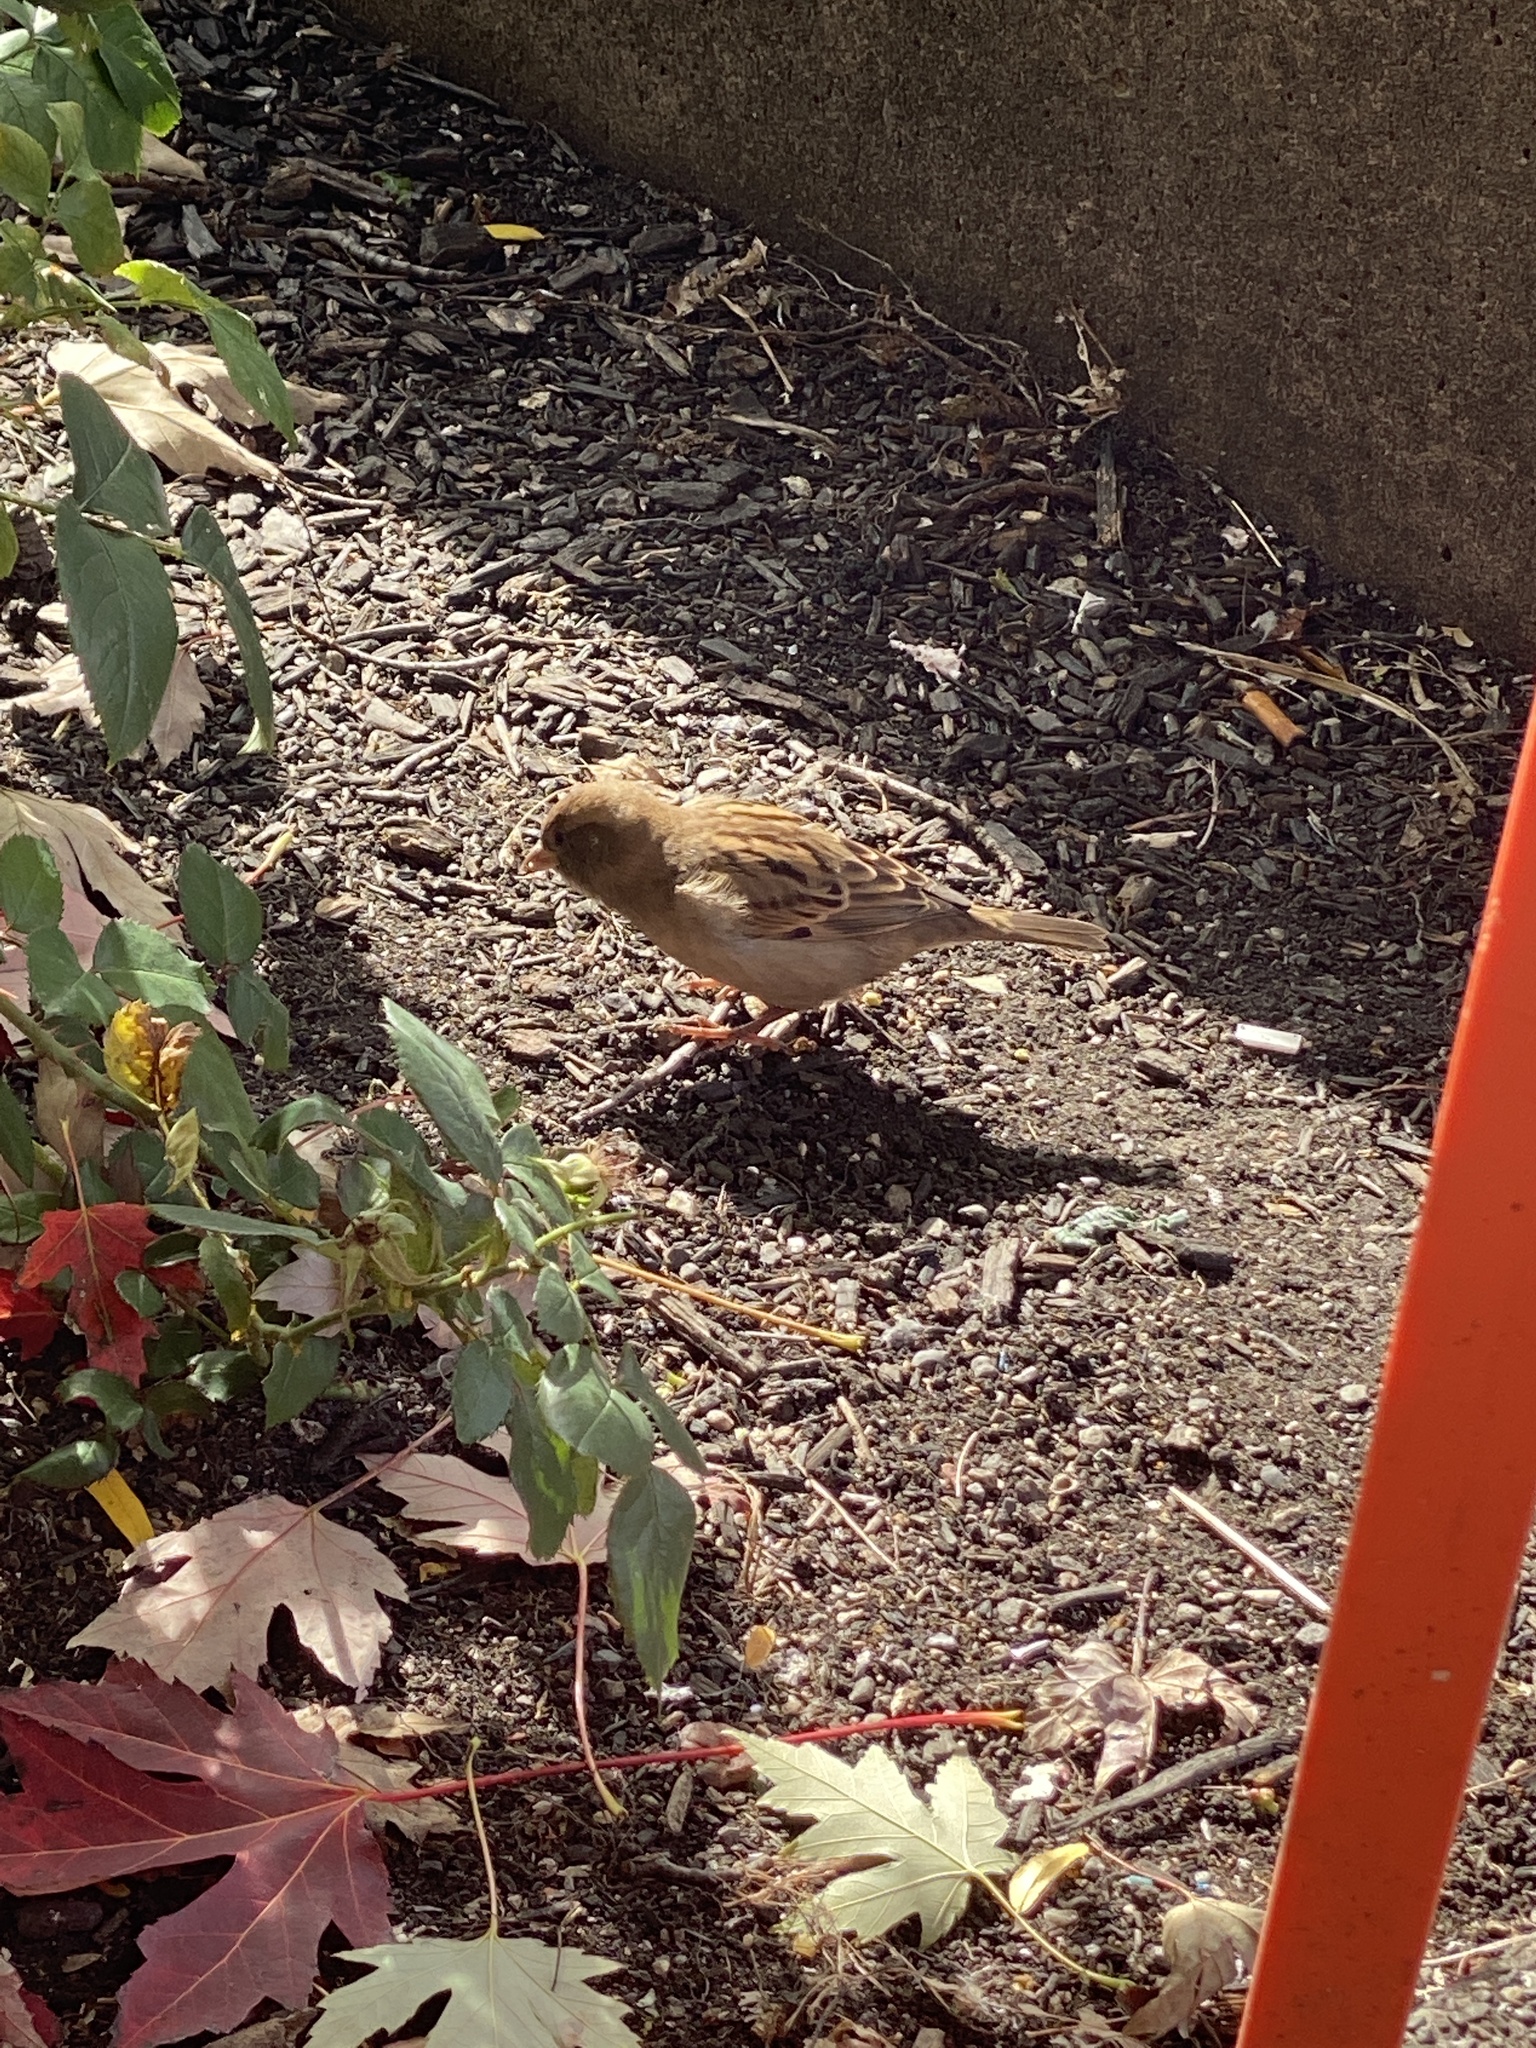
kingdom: Animalia
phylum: Chordata
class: Aves
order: Passeriformes
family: Passeridae
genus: Passer
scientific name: Passer domesticus
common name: House sparrow
